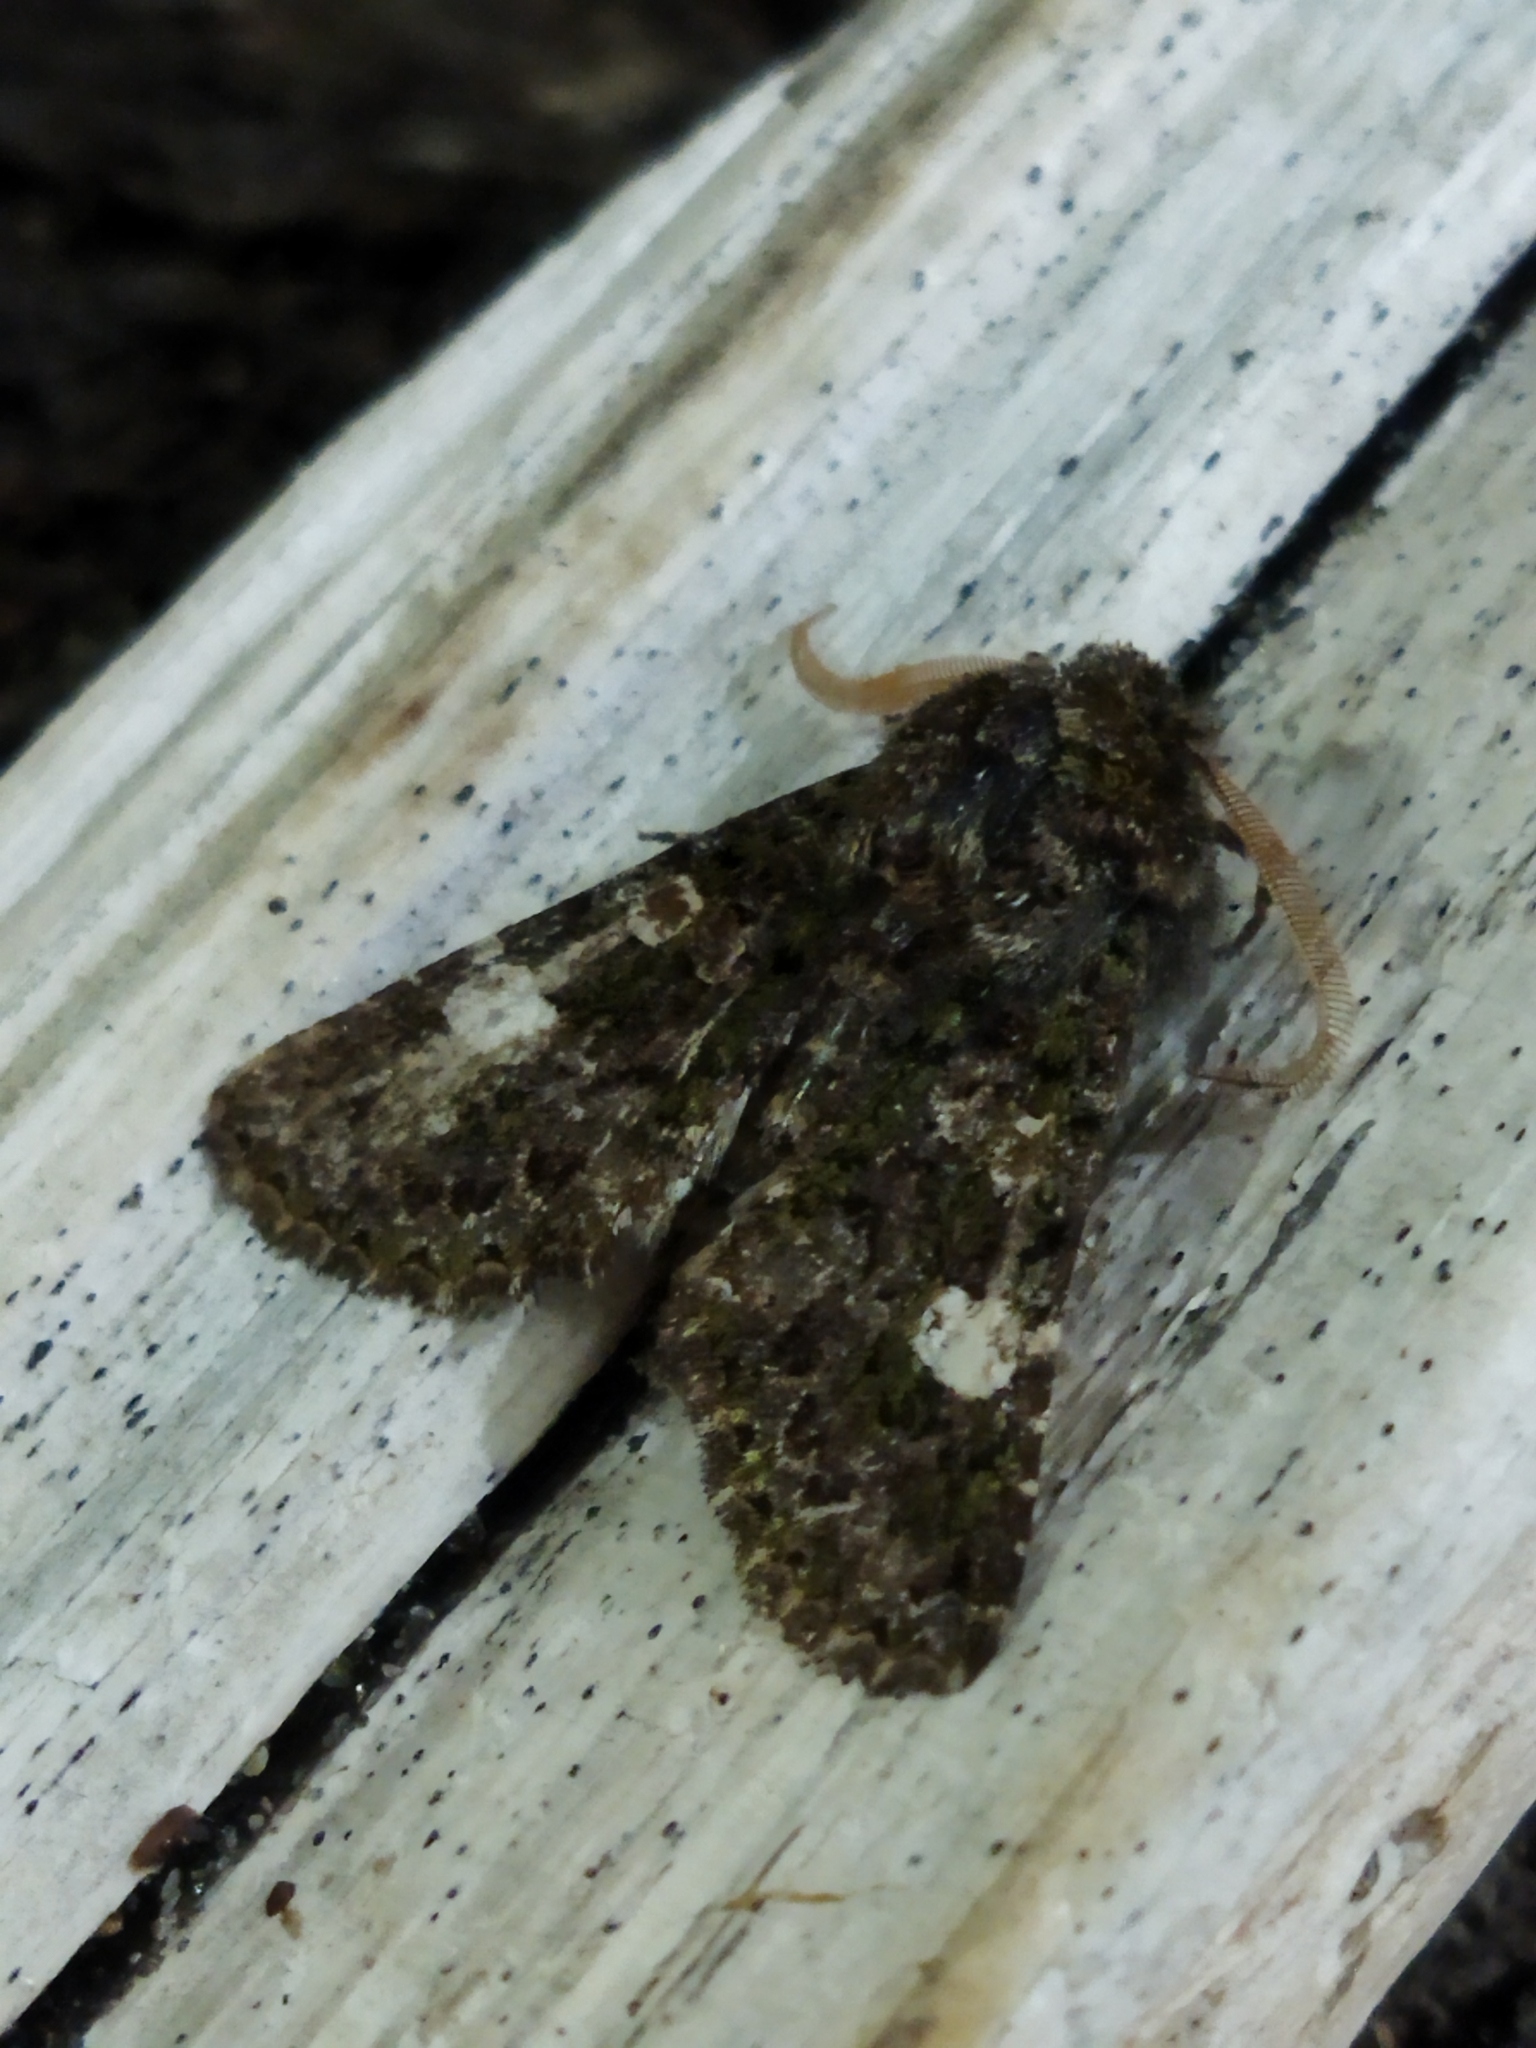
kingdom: Animalia
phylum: Arthropoda
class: Insecta
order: Lepidoptera
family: Noctuidae
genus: Valeria
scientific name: Valeria oleagina
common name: Green-brindled dot
